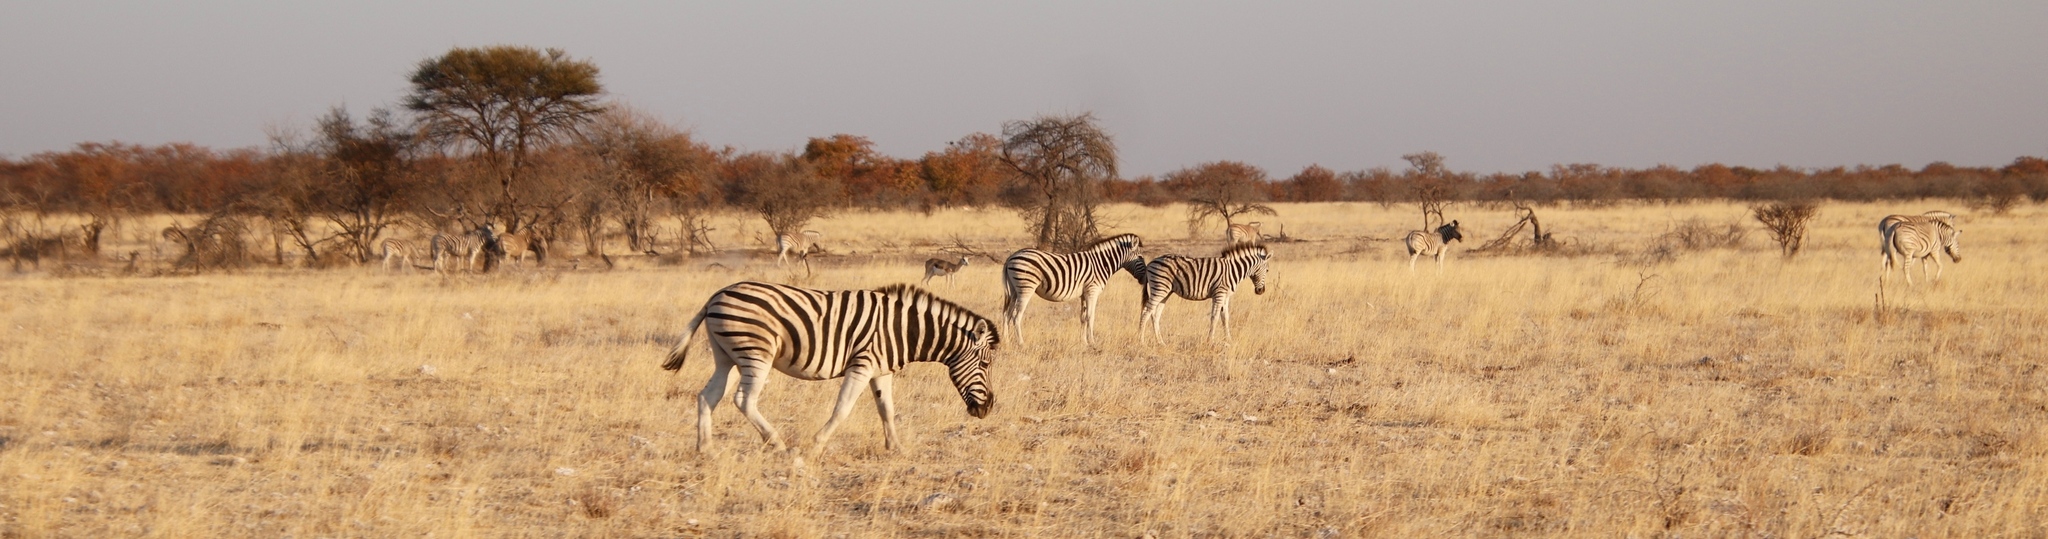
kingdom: Animalia
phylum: Chordata
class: Mammalia
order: Perissodactyla
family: Equidae
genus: Equus
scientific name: Equus quagga
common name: Plains zebra
